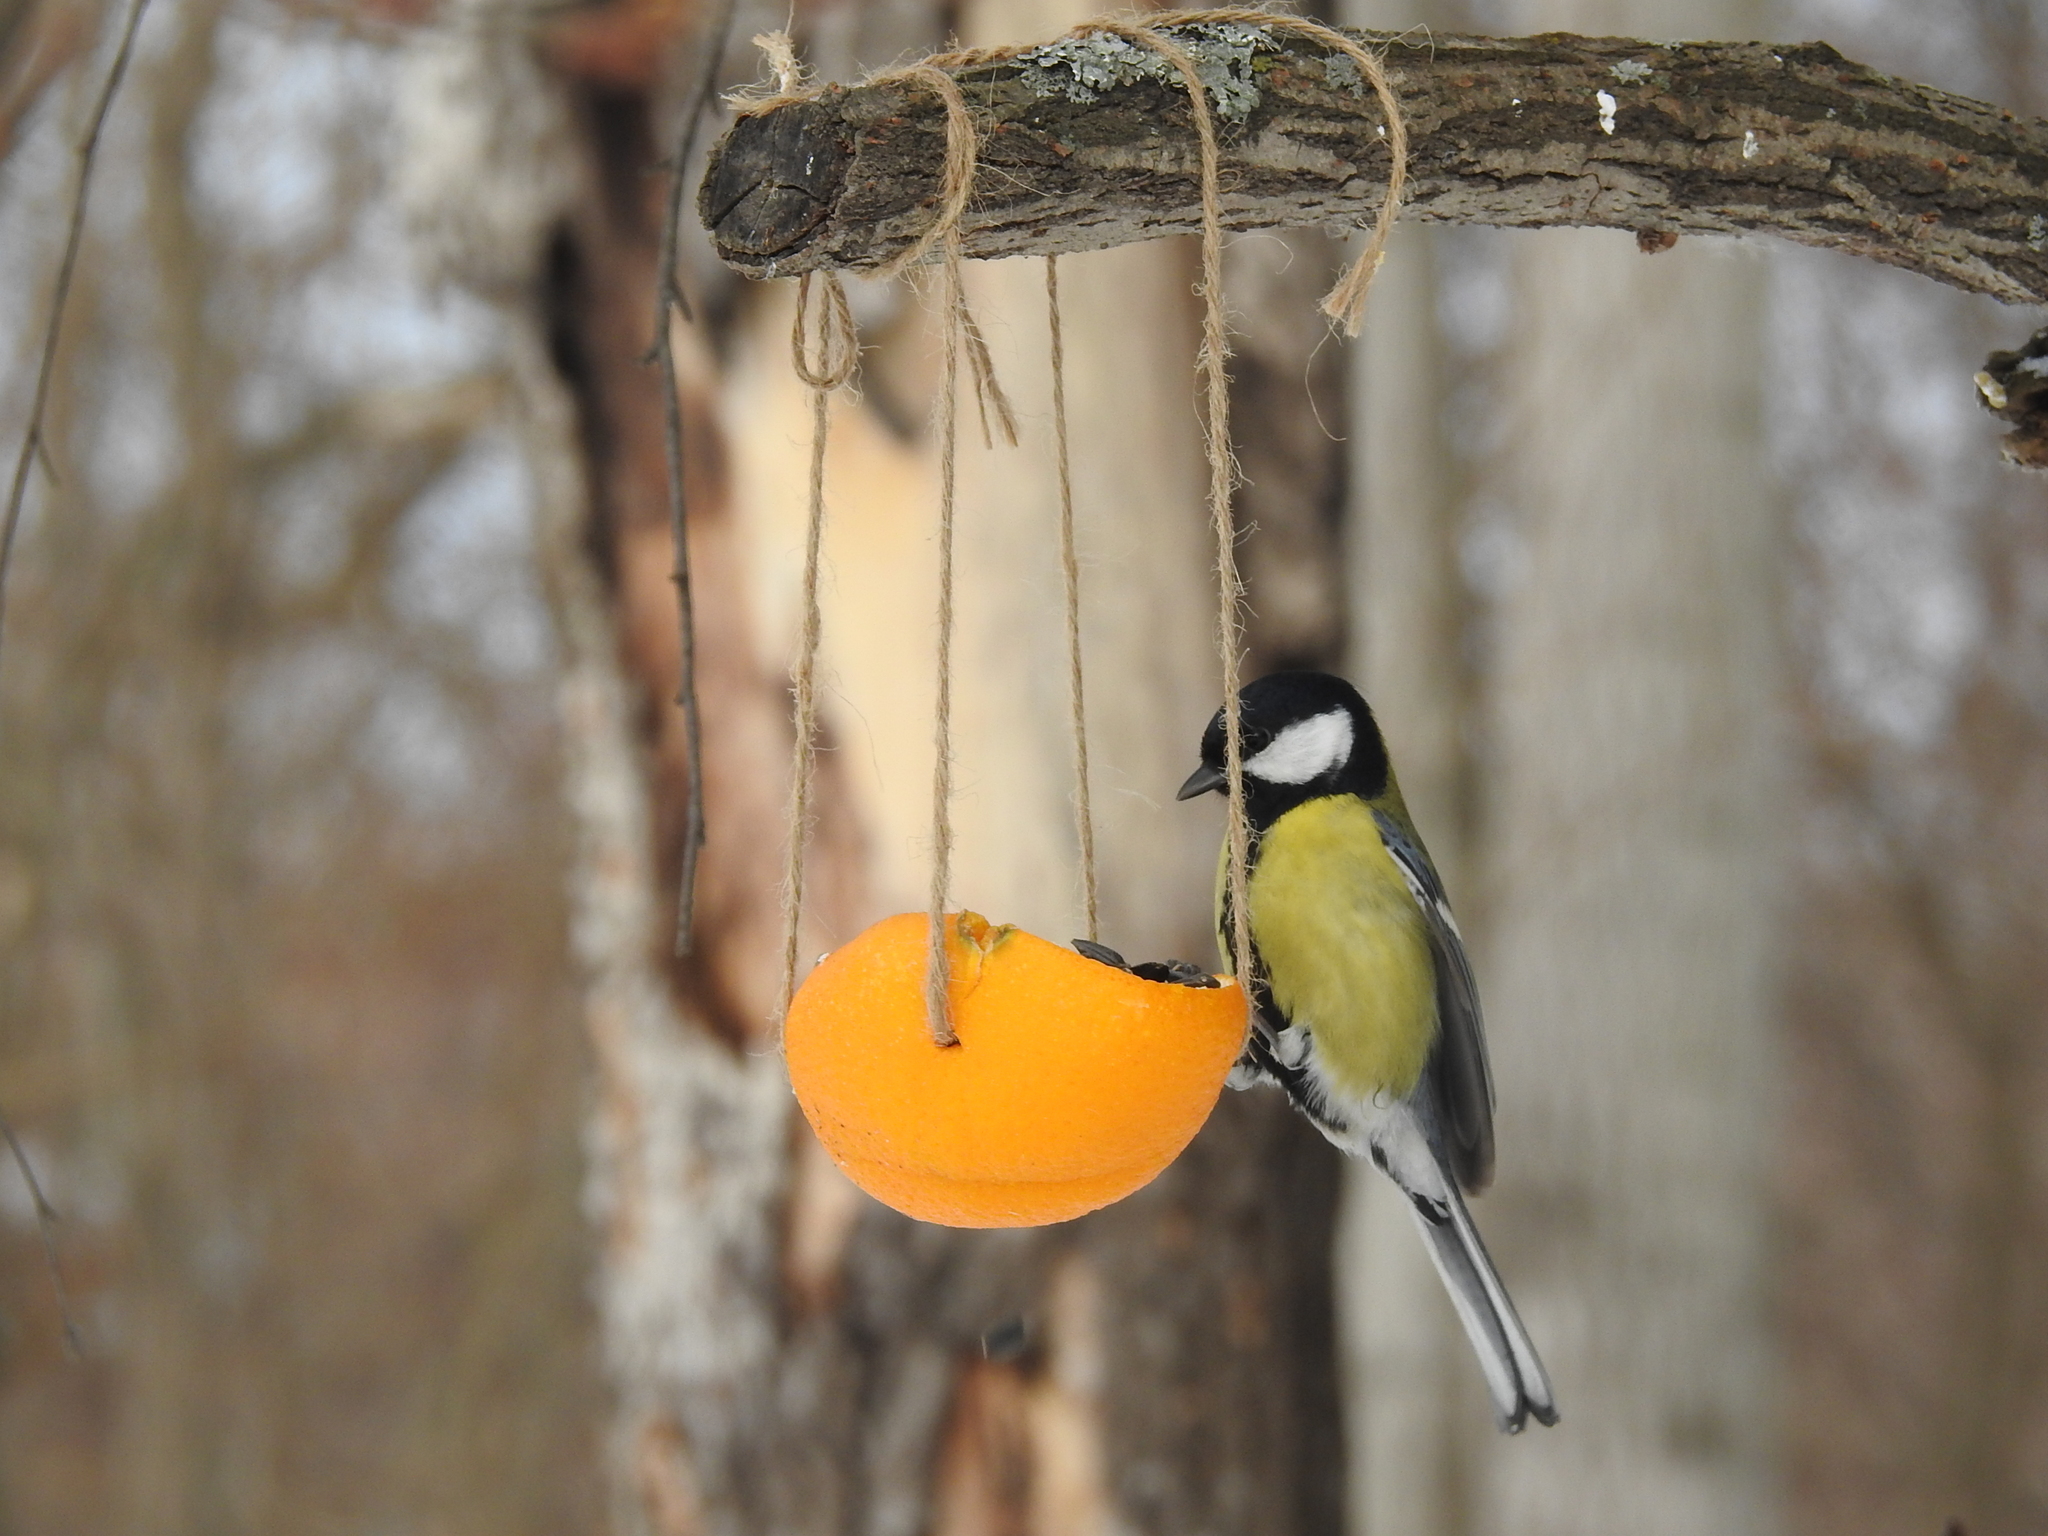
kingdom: Animalia
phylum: Chordata
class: Aves
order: Passeriformes
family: Paridae
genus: Parus
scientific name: Parus major
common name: Great tit
